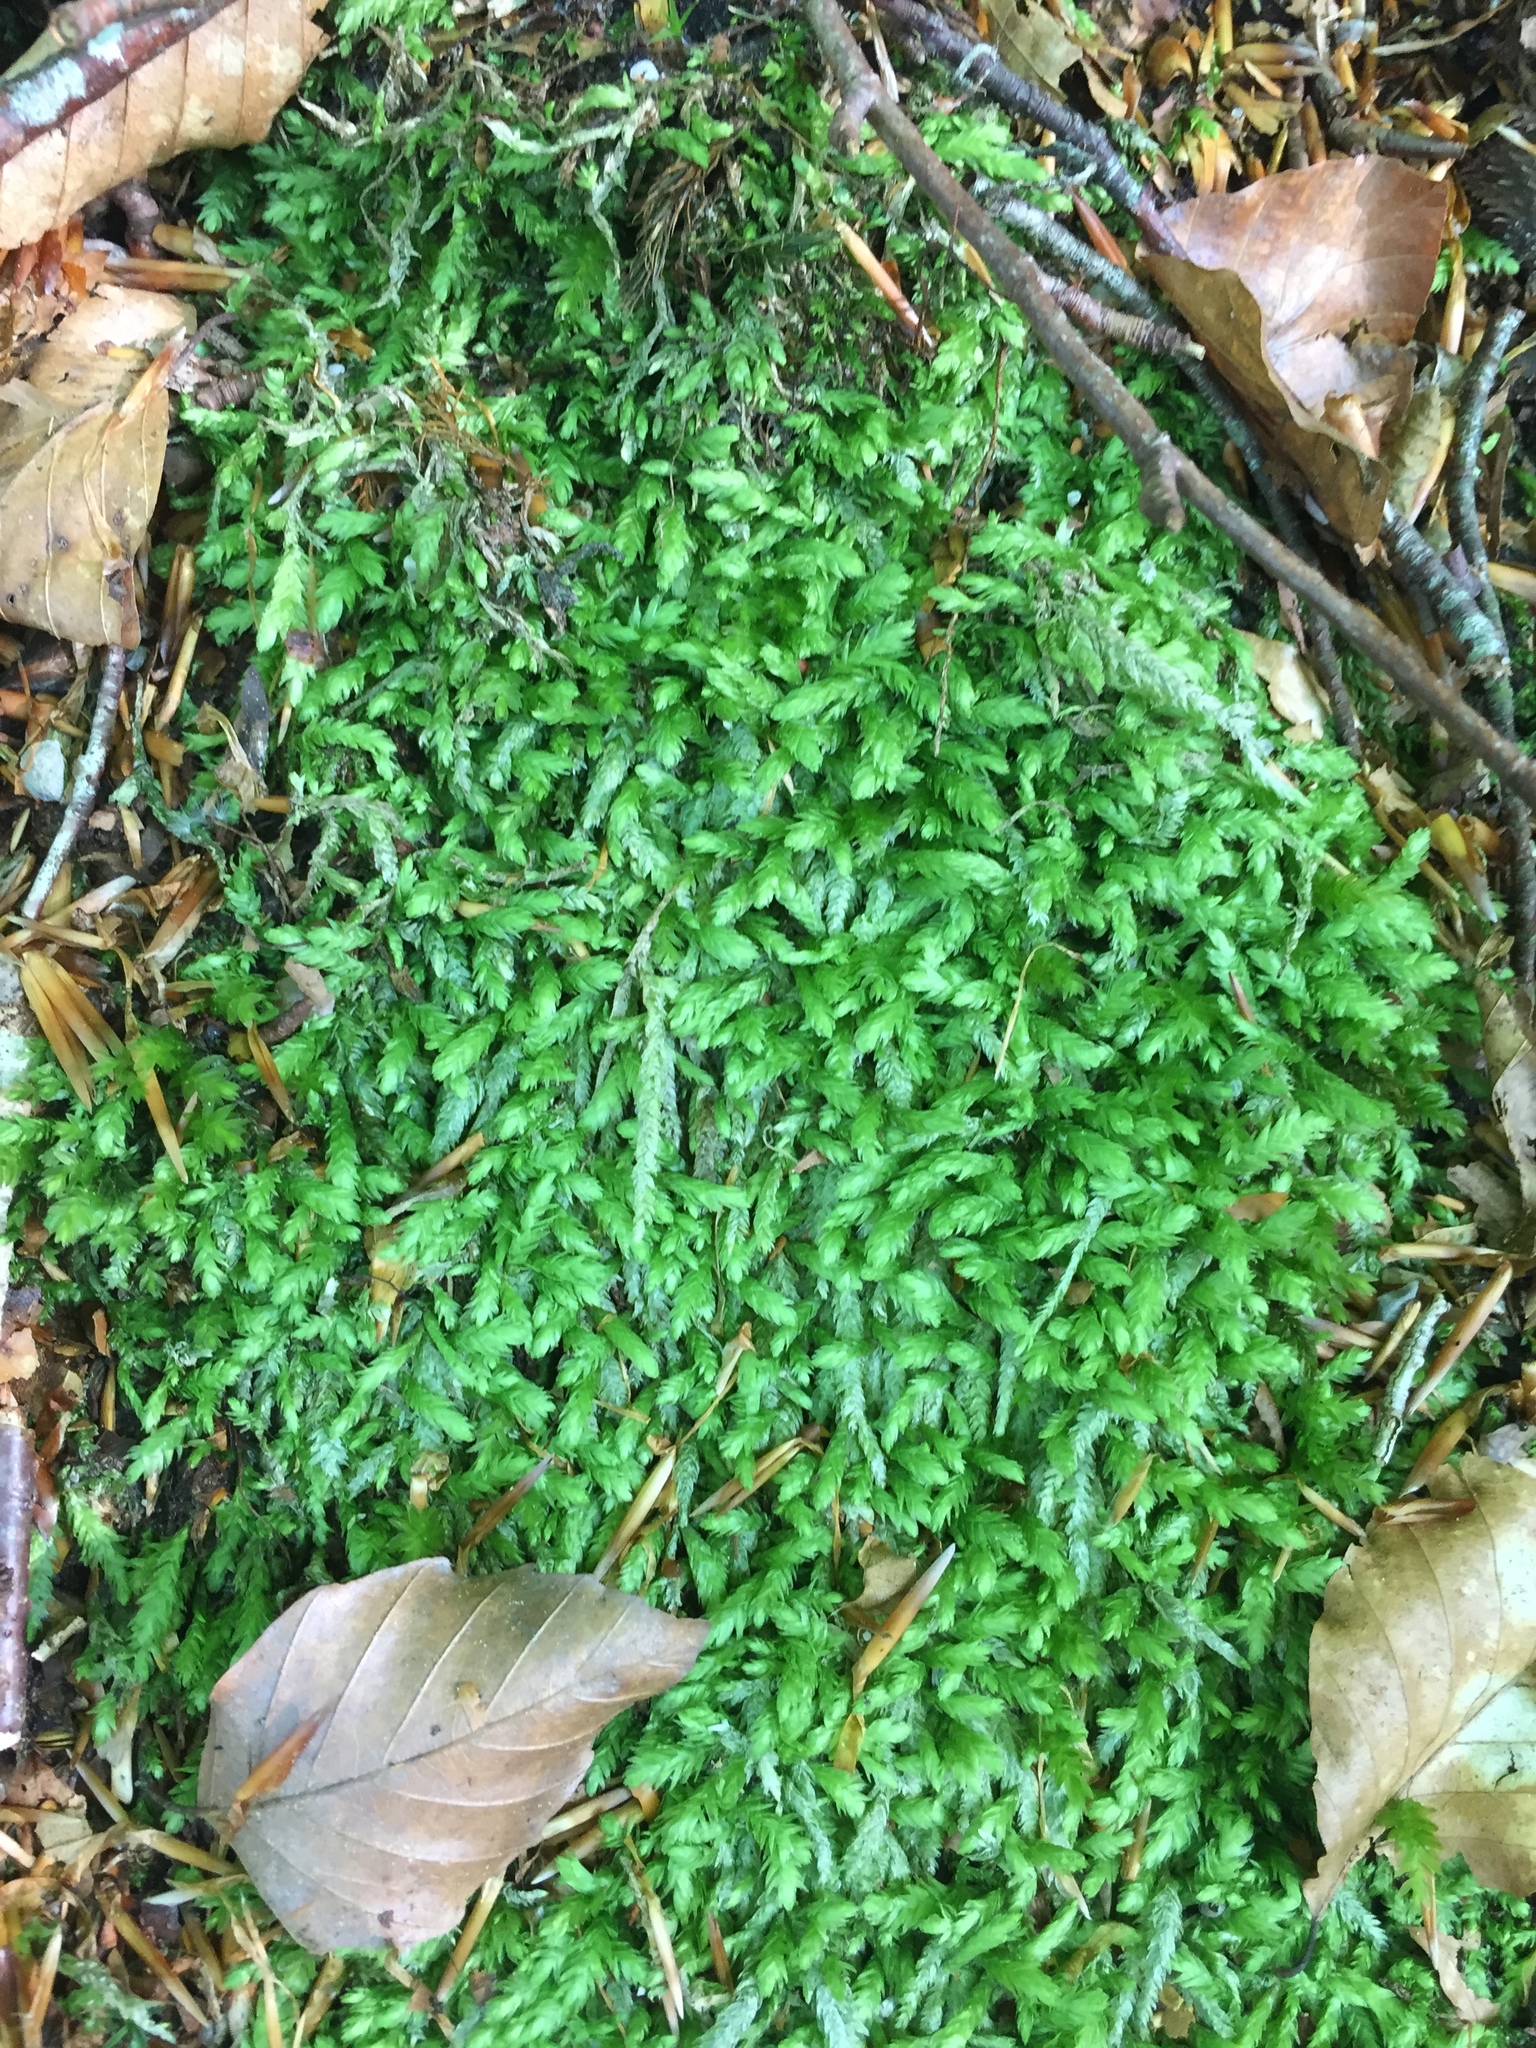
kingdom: Plantae
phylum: Bryophyta
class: Bryopsida
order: Hypnales
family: Plagiotheciaceae
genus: Plagiothecium
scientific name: Plagiothecium undulatum
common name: Waved silk-moss
